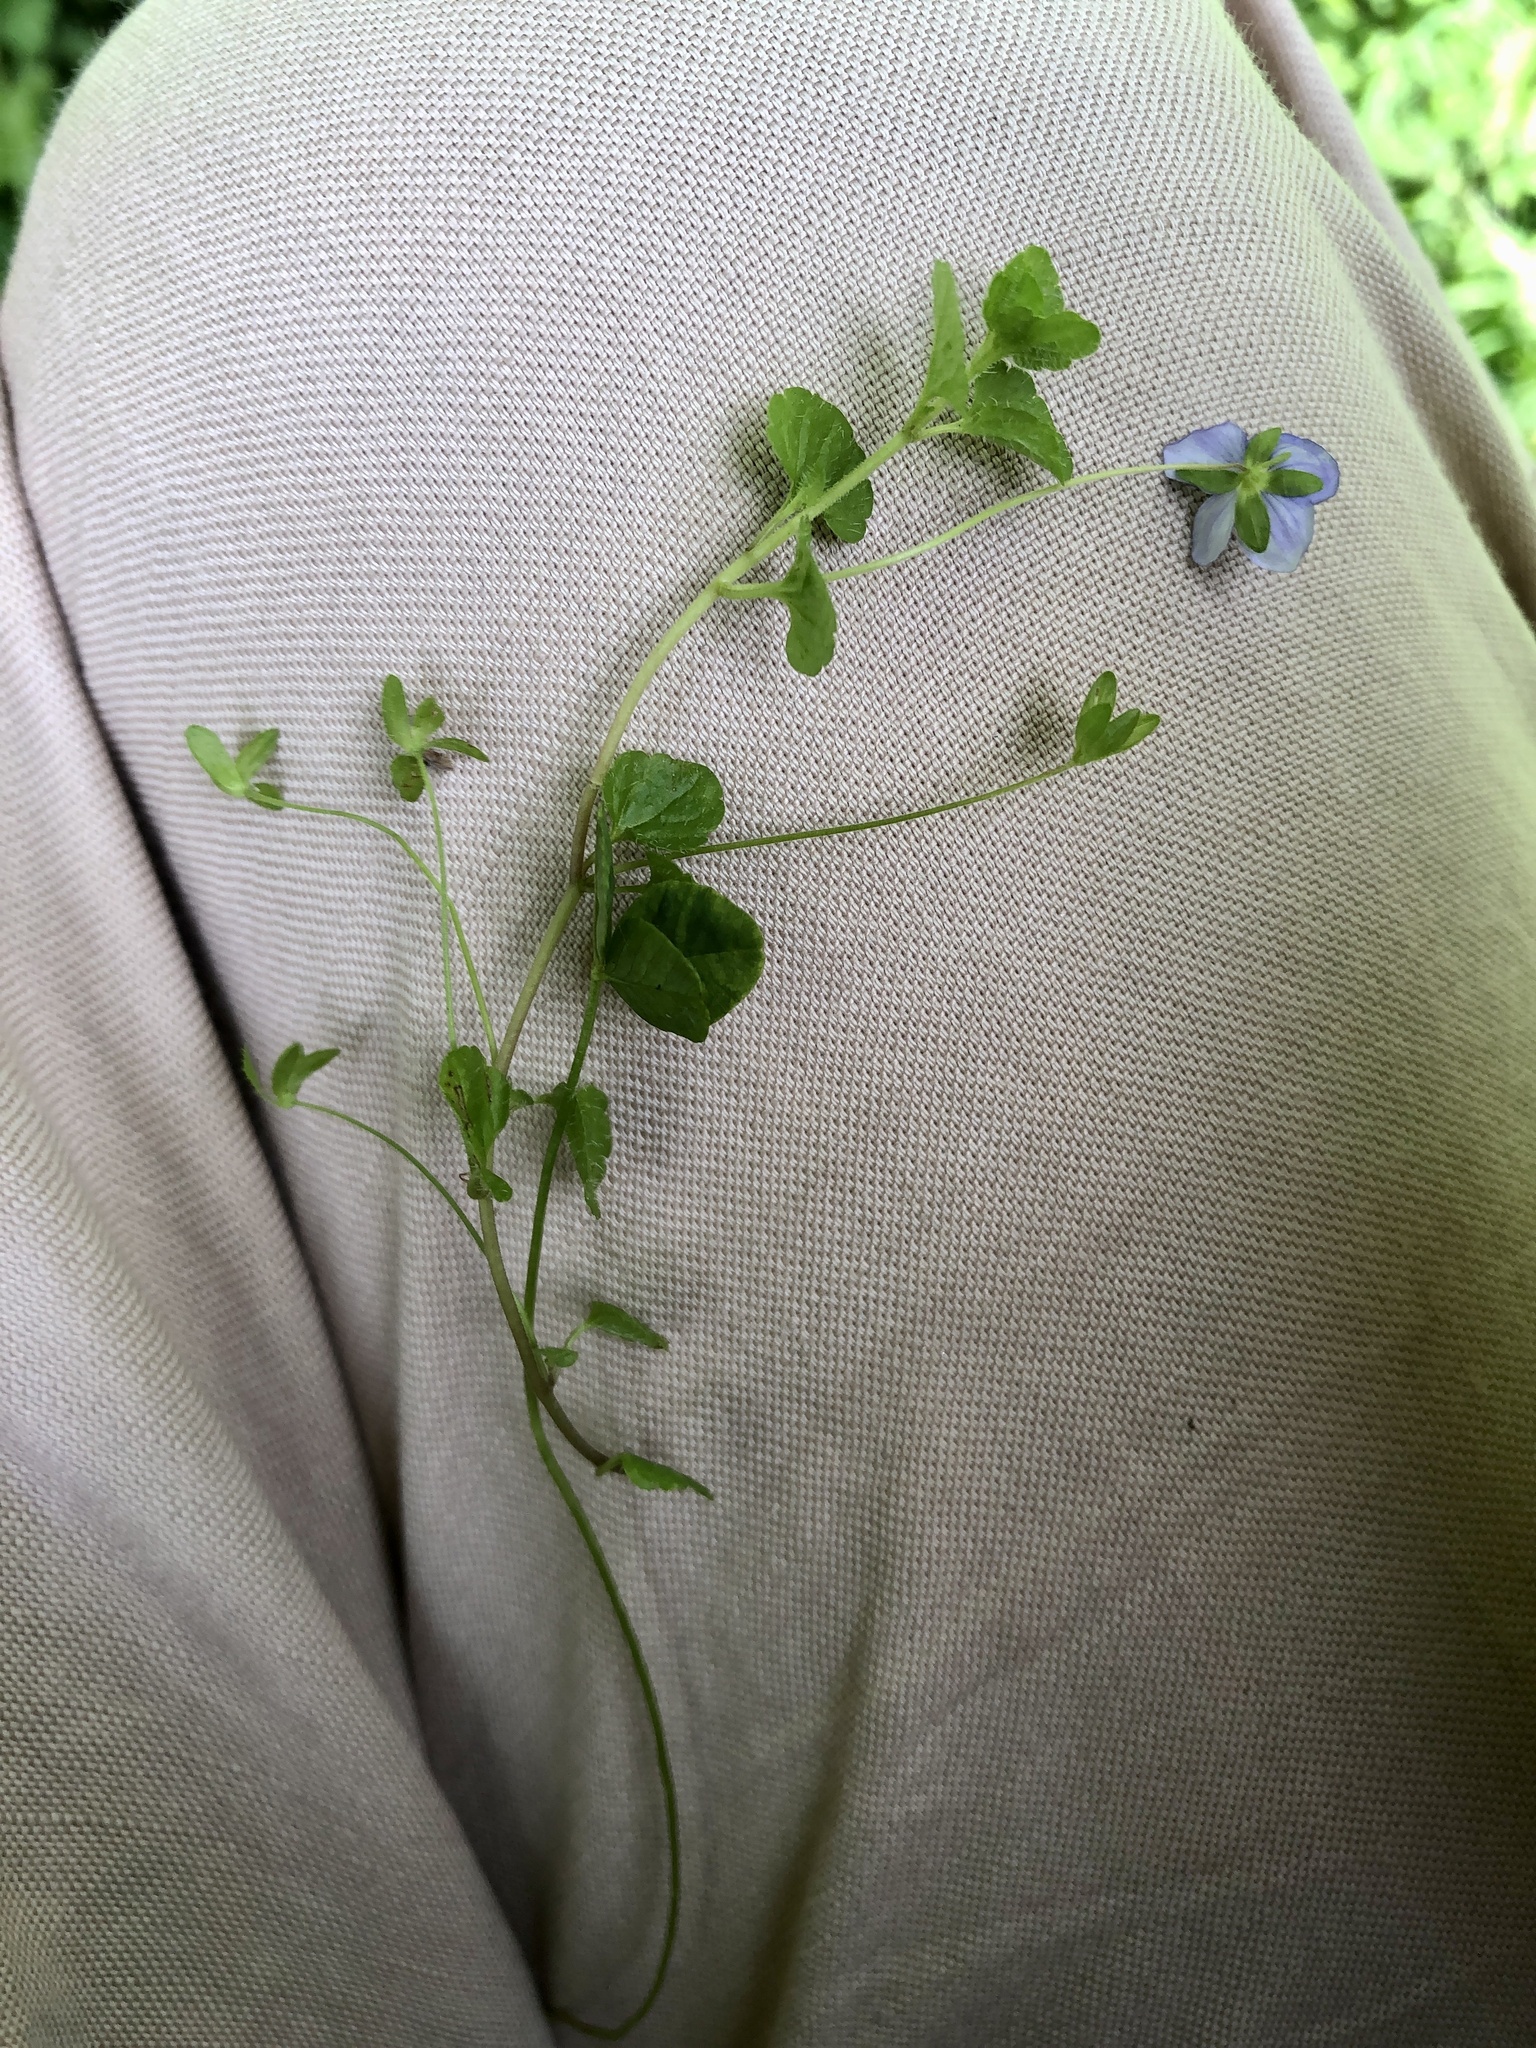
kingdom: Plantae
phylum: Tracheophyta
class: Magnoliopsida
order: Lamiales
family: Plantaginaceae
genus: Veronica
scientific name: Veronica filiformis
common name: Slender speedwell
